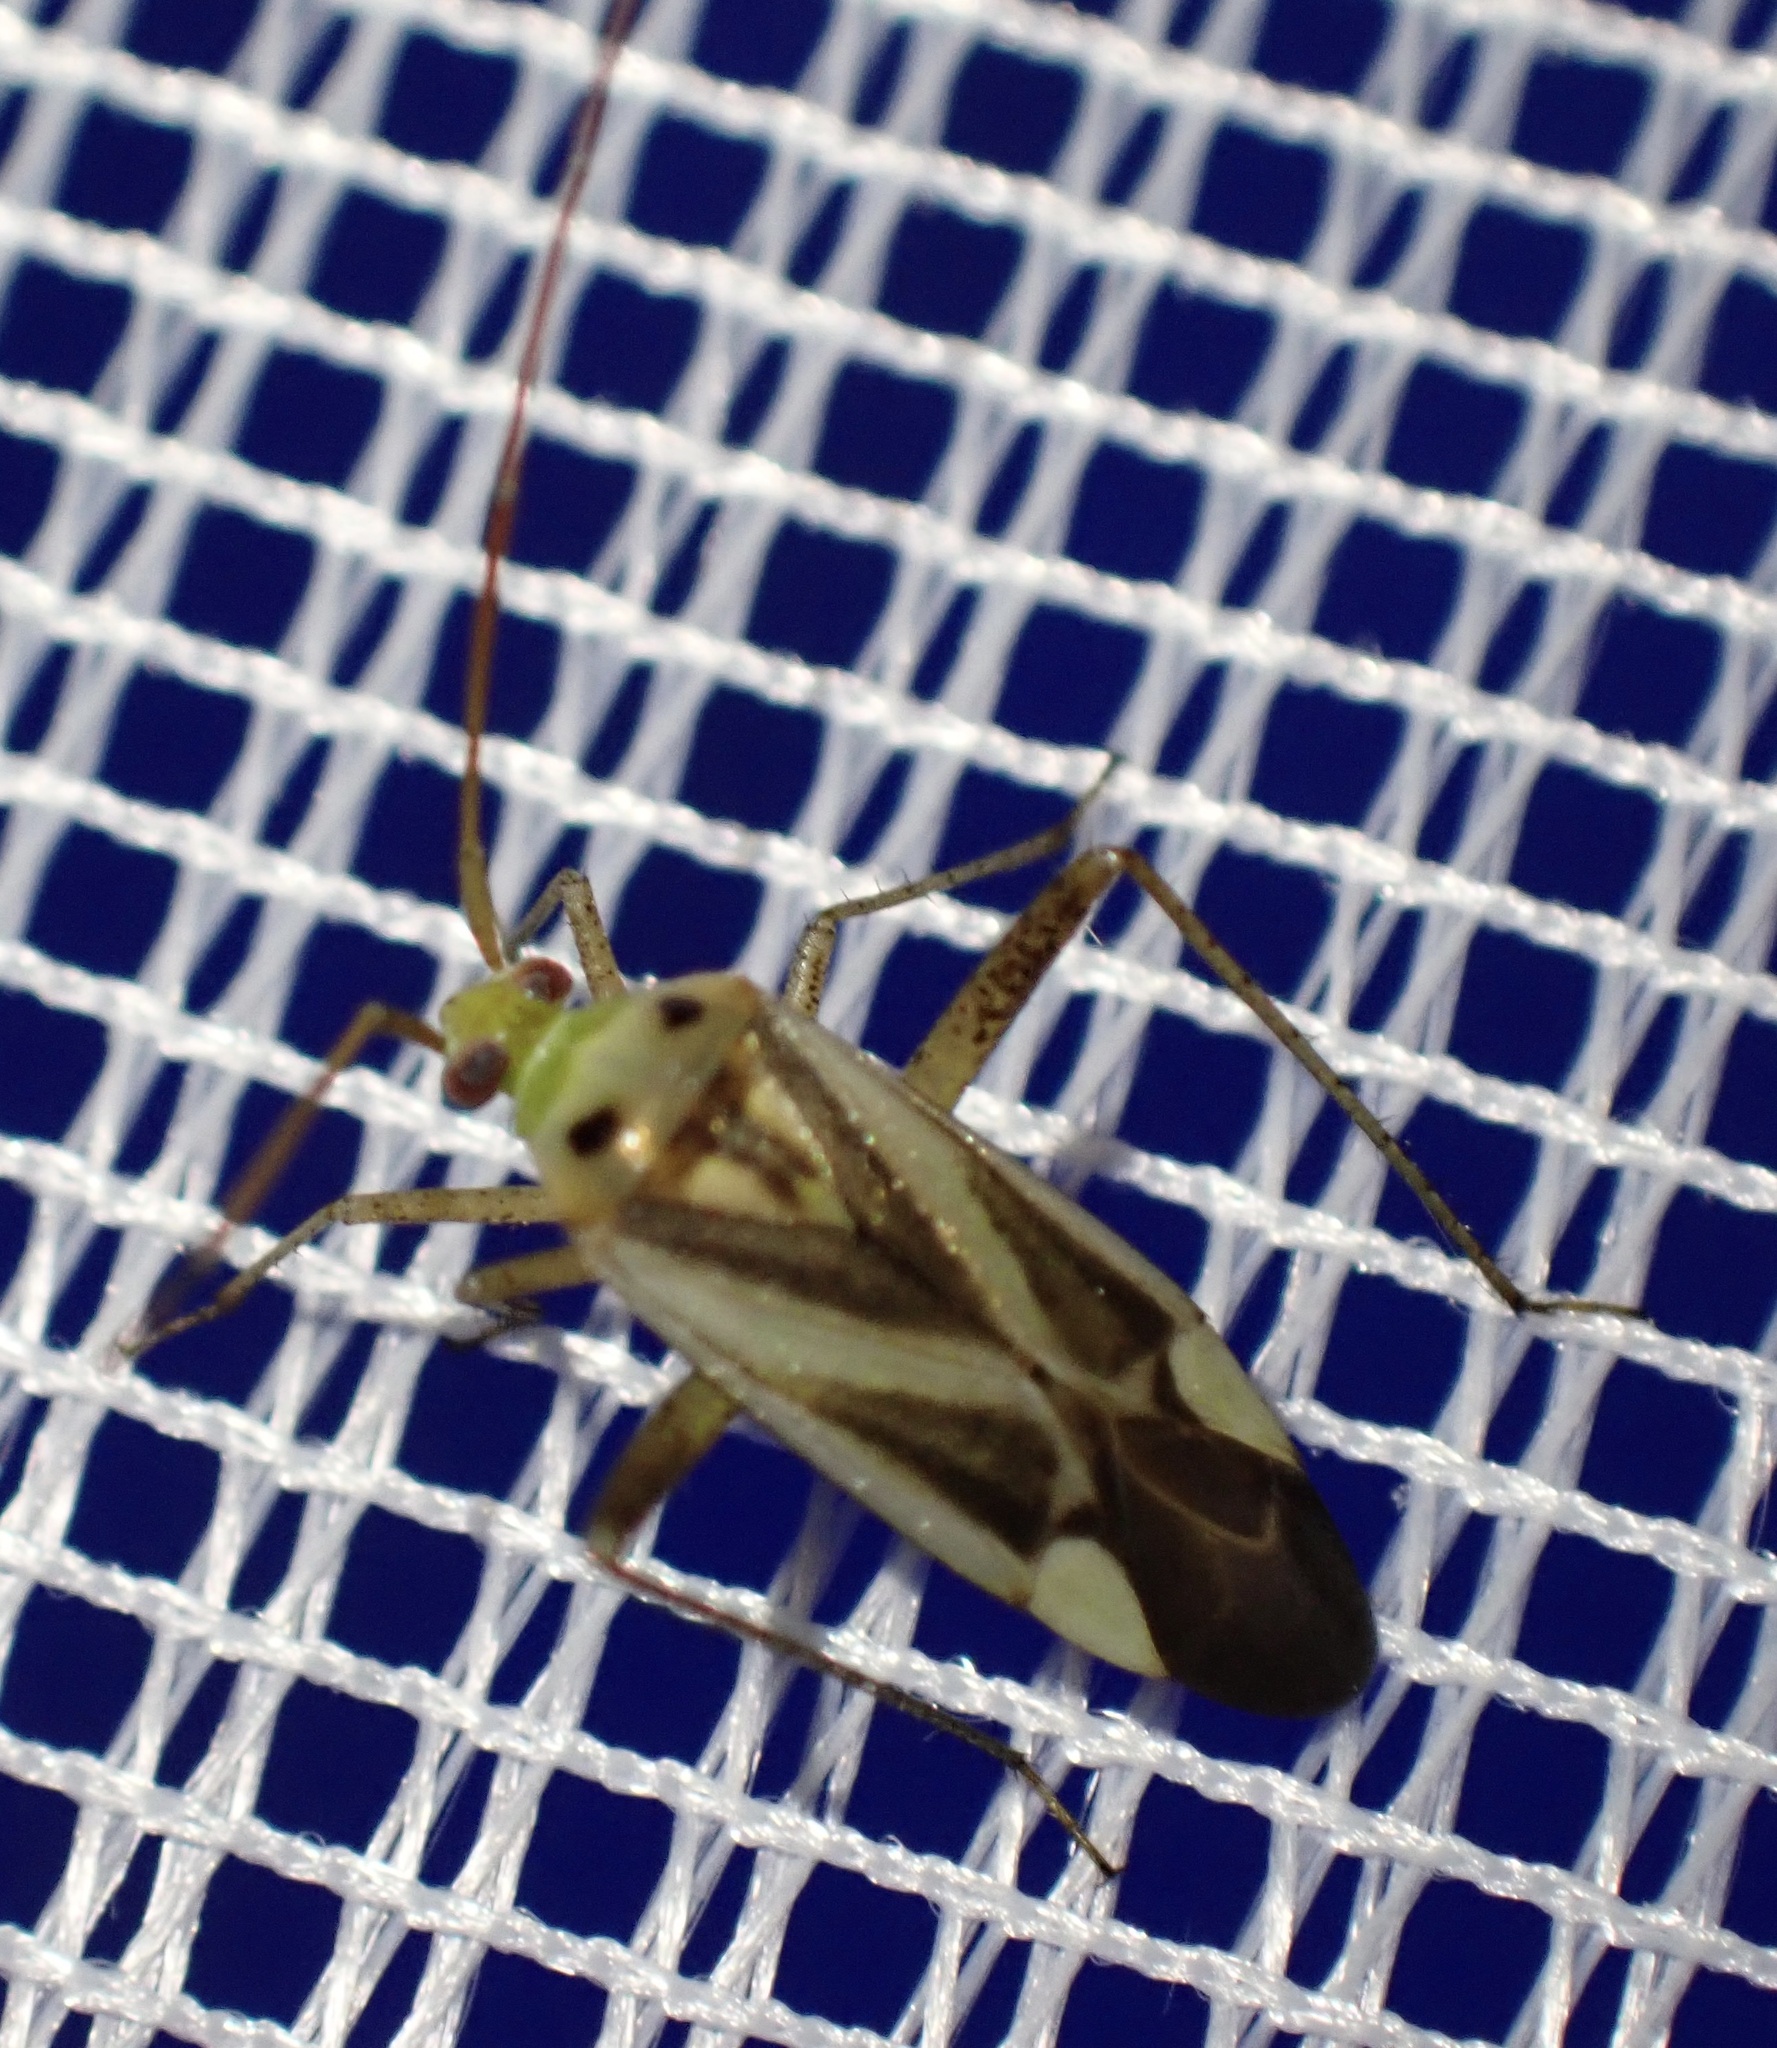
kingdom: Animalia
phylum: Arthropoda
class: Insecta
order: Hemiptera
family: Miridae
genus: Adelphocoris
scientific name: Adelphocoris lineolatus
